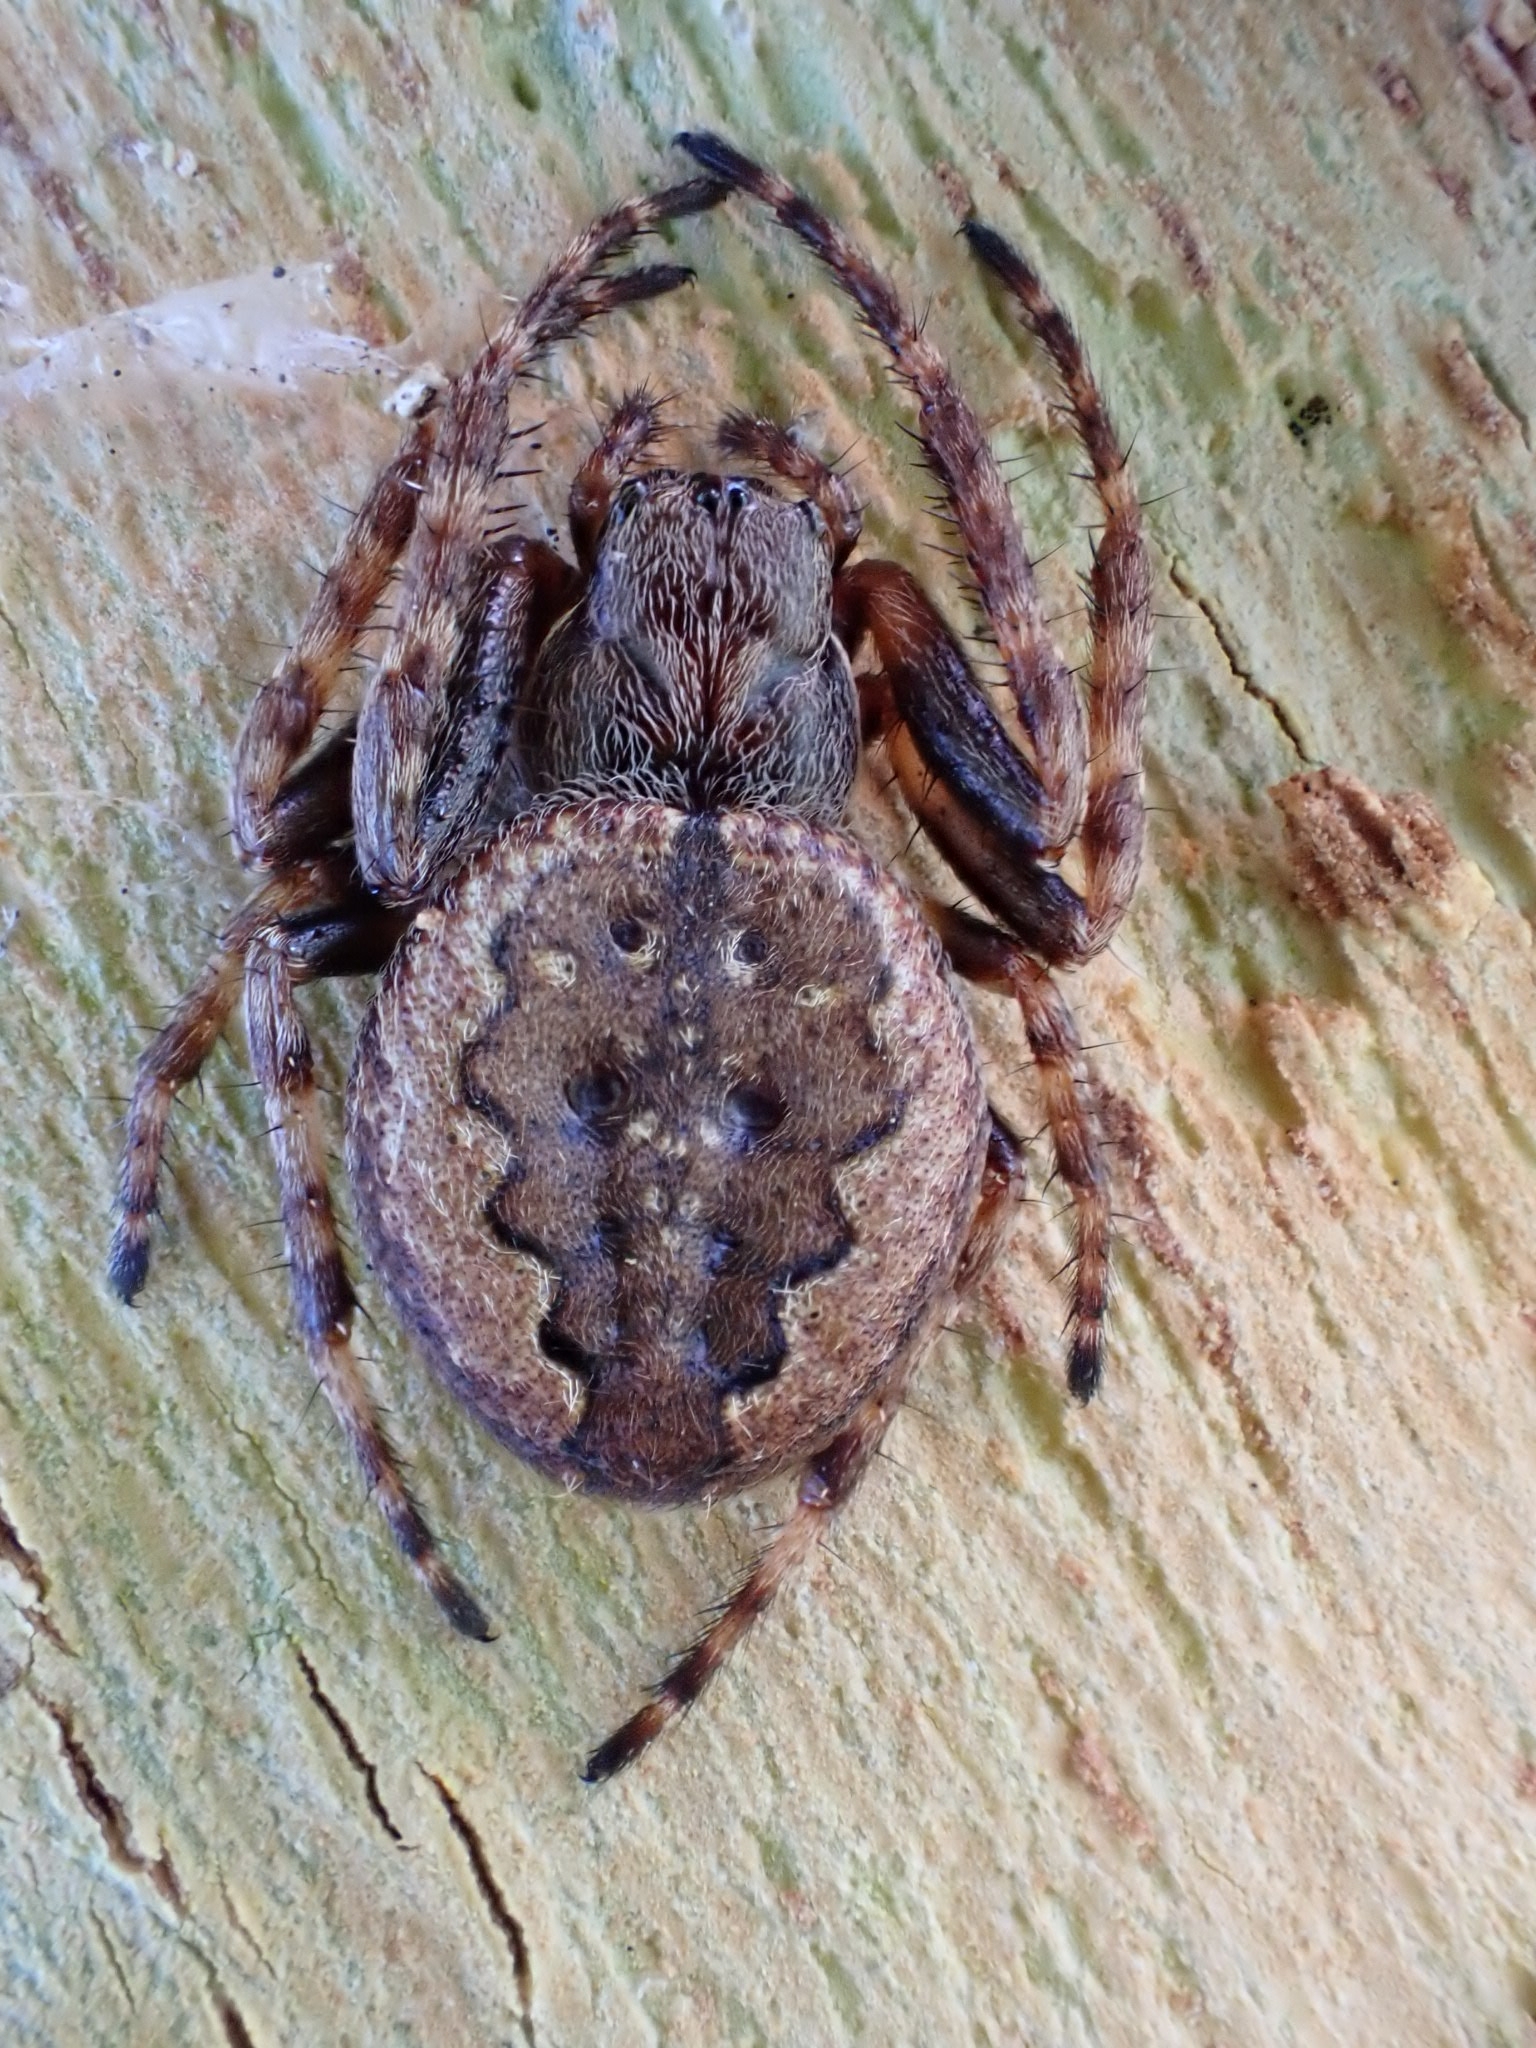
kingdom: Animalia
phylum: Arthropoda
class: Arachnida
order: Araneae
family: Araneidae
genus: Nuctenea
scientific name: Nuctenea umbratica
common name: Toad spider
